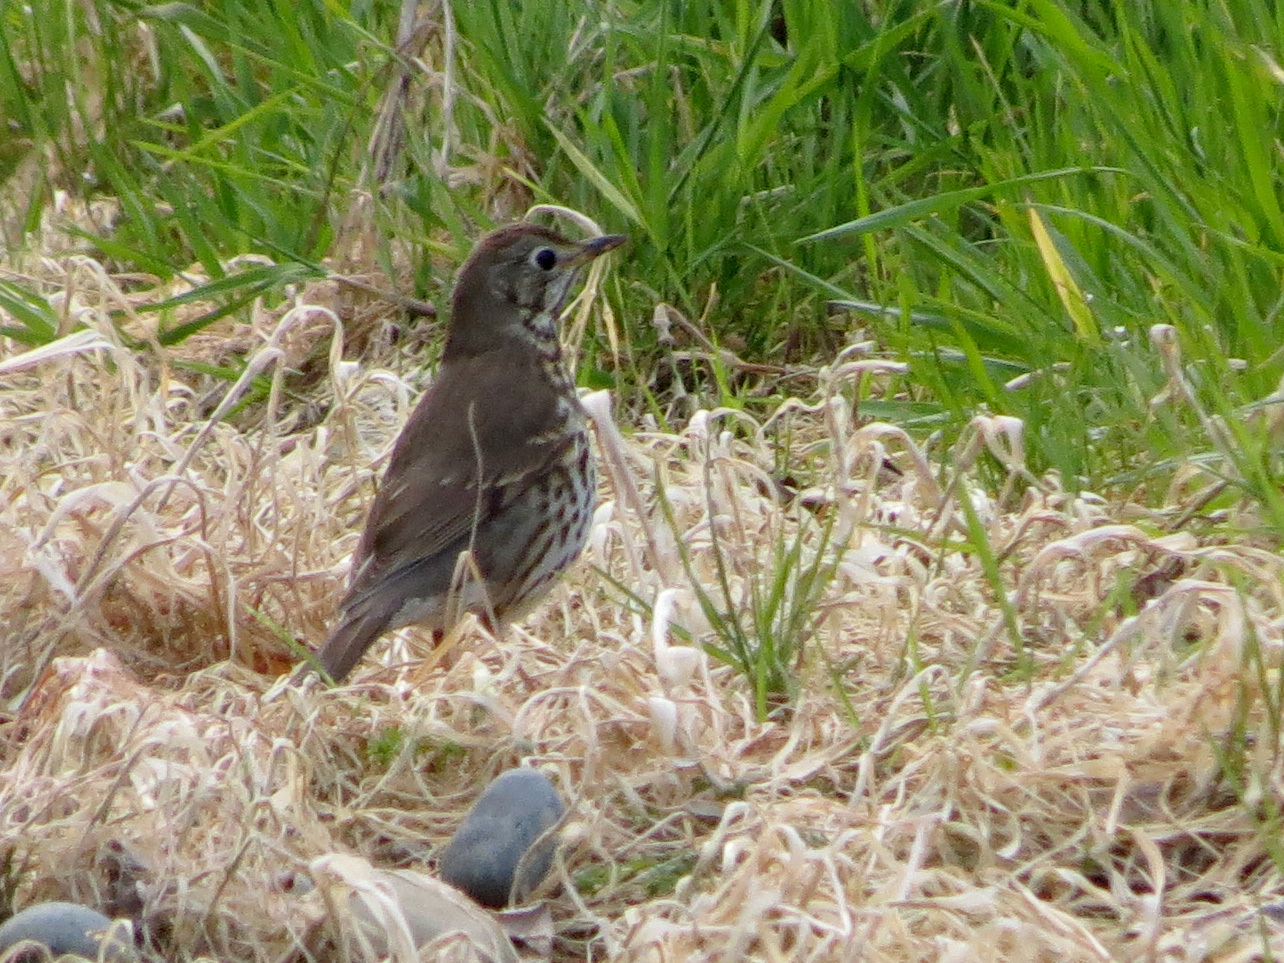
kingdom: Animalia
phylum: Chordata
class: Aves
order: Passeriformes
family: Turdidae
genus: Turdus
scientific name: Turdus philomelos
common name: Song thrush
